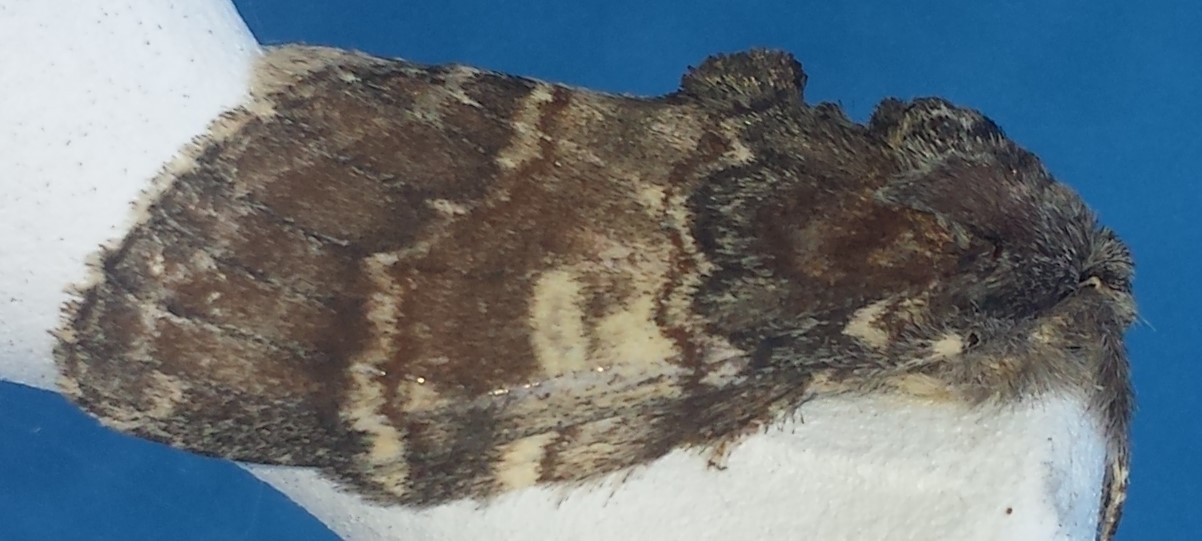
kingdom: Animalia
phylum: Arthropoda
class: Insecta
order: Lepidoptera
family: Notodontidae
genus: Peridea
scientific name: Peridea ferruginea
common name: Chocolate prominent
